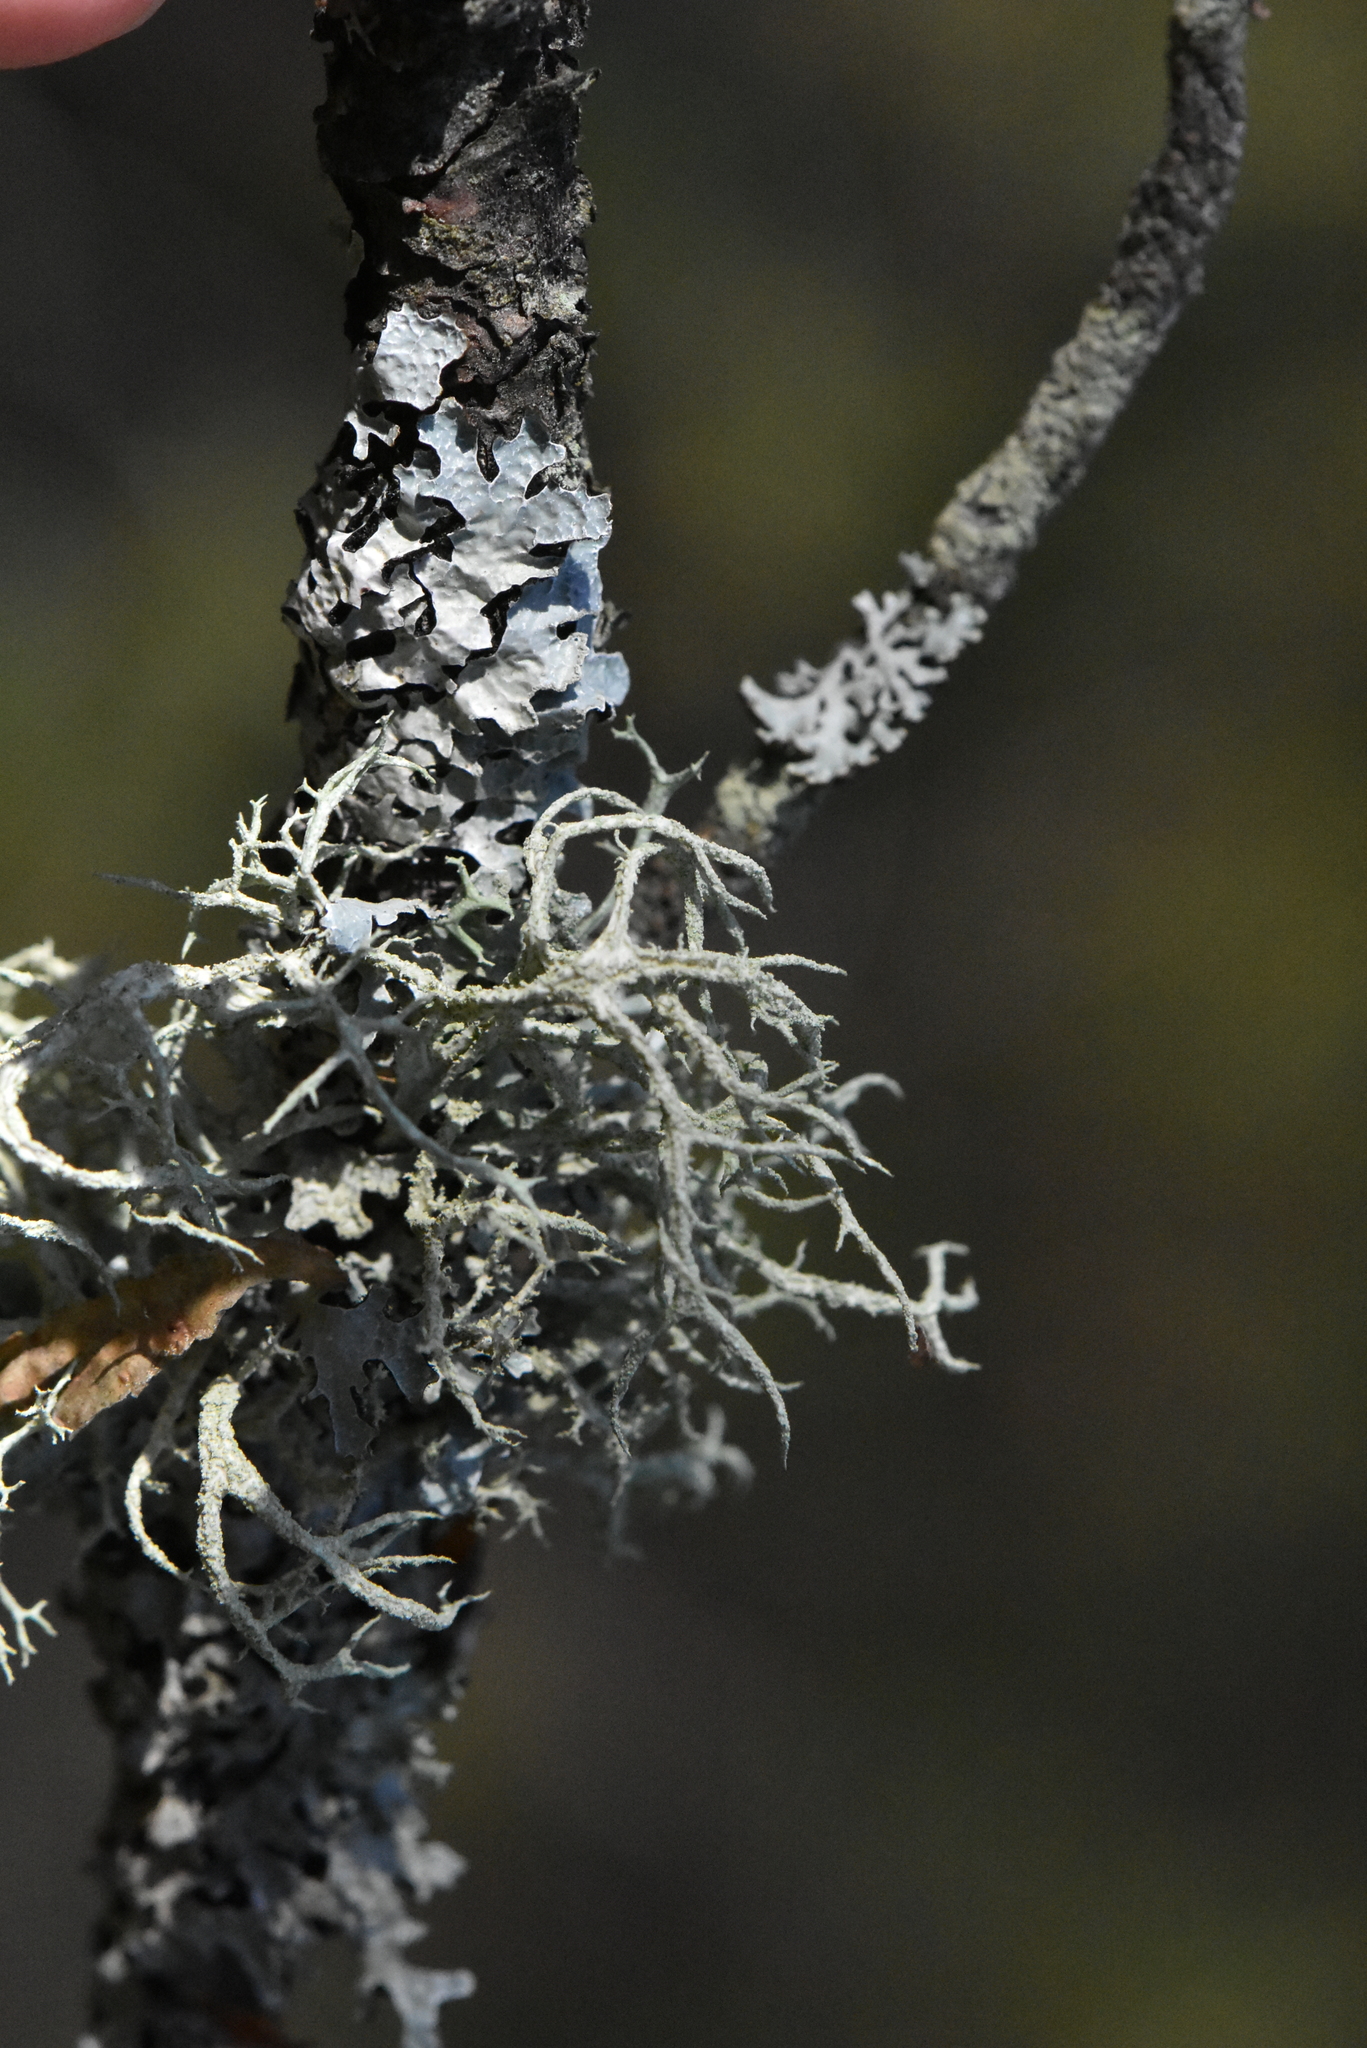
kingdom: Fungi
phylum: Ascomycota
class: Lecanoromycetes
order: Lecanorales
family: Parmeliaceae
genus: Evernia
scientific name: Evernia mesomorpha
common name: Boreal oak moss lichen
